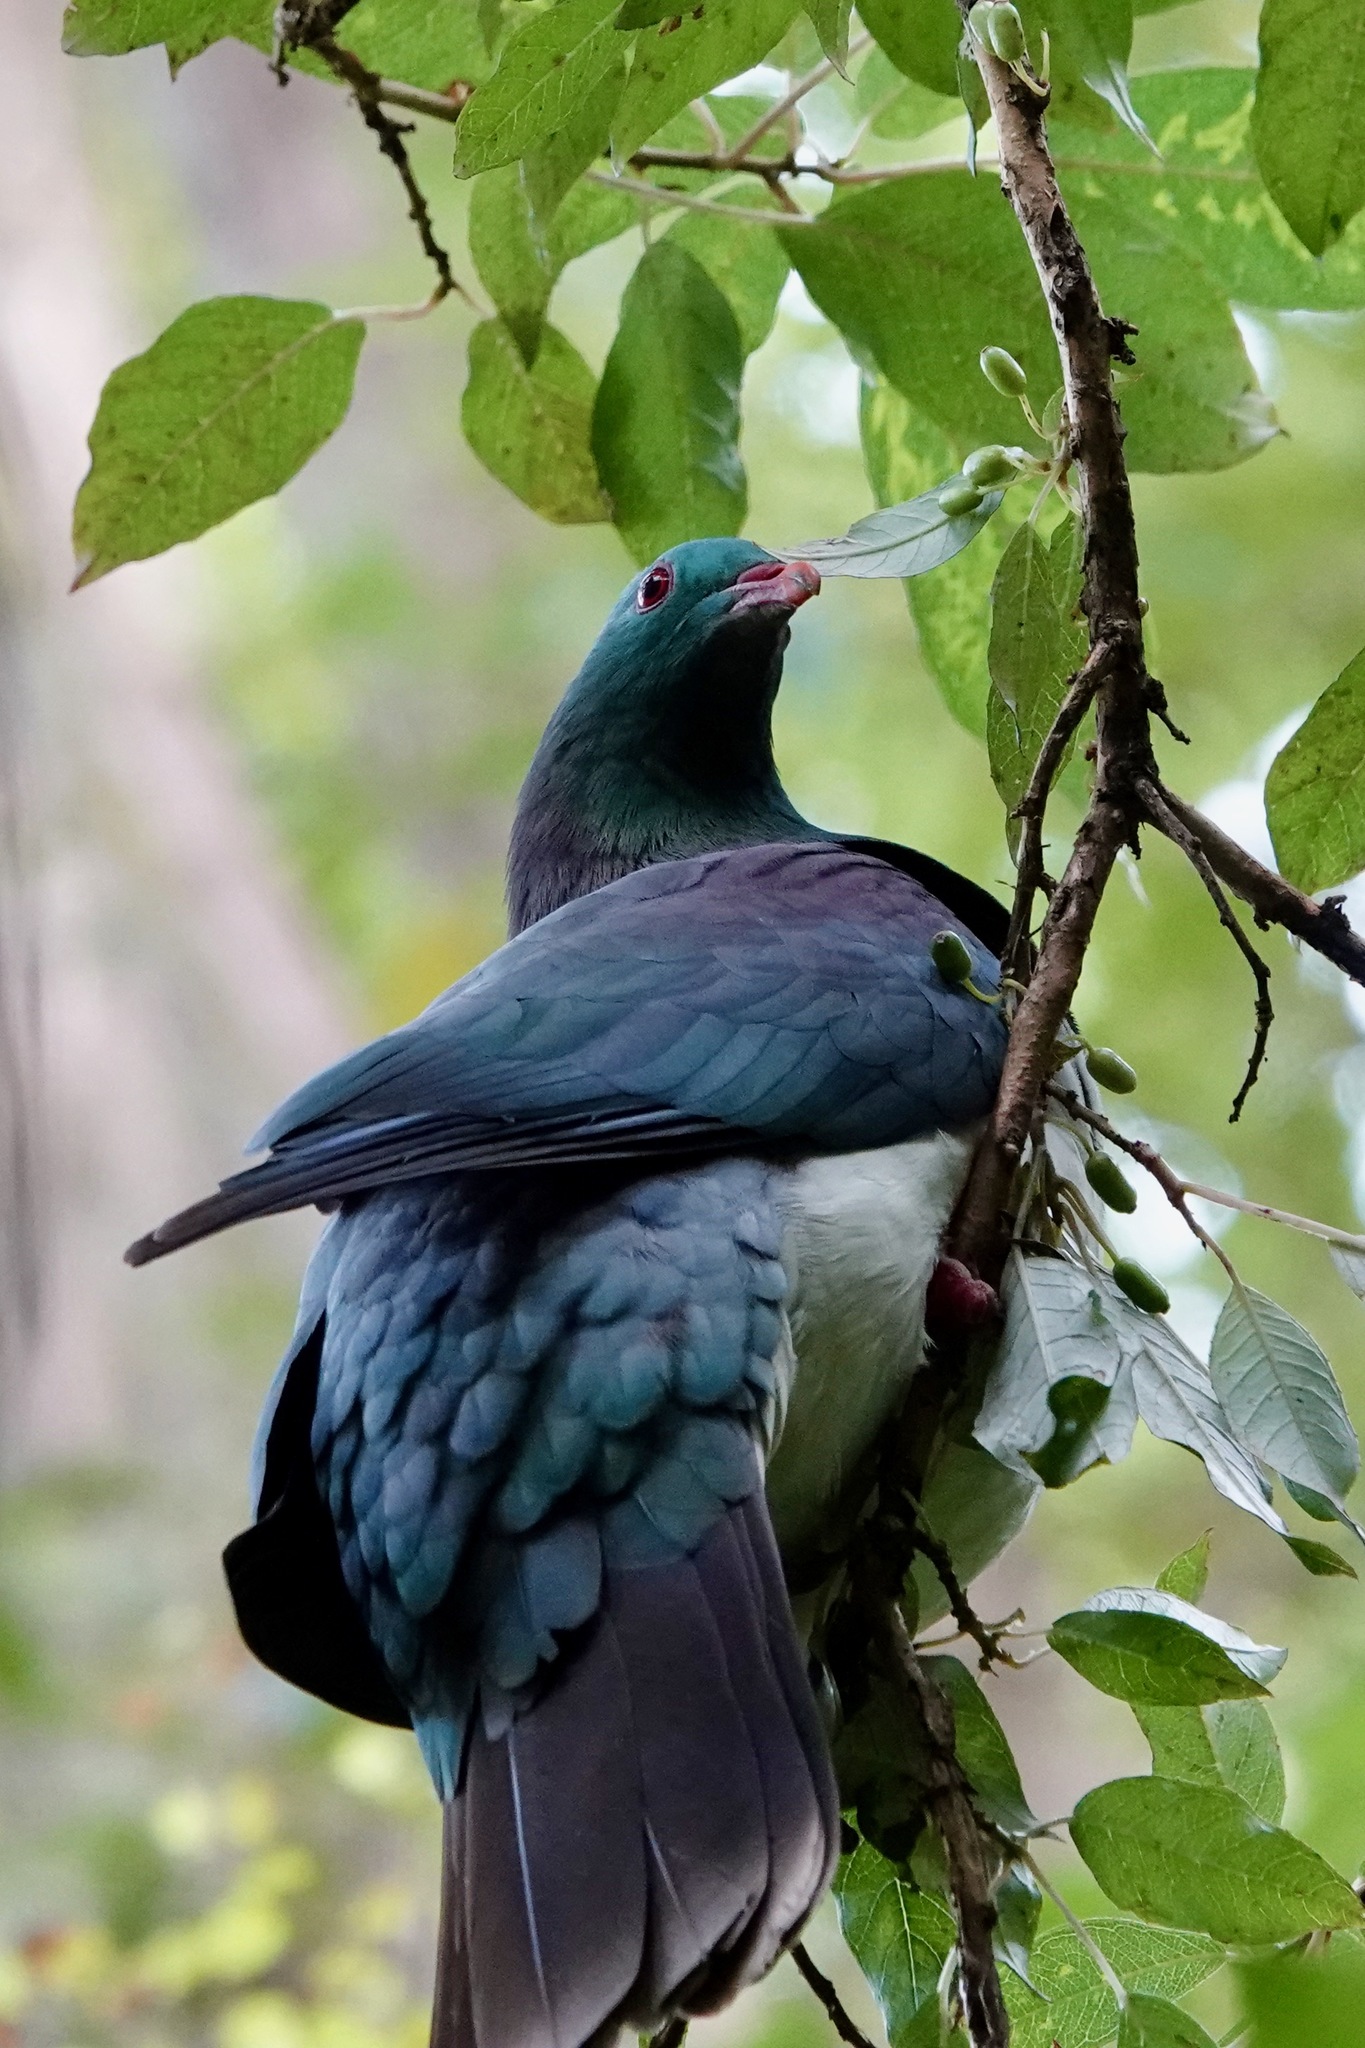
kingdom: Animalia
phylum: Chordata
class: Aves
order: Columbiformes
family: Columbidae
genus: Hemiphaga
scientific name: Hemiphaga novaeseelandiae
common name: New zealand pigeon
